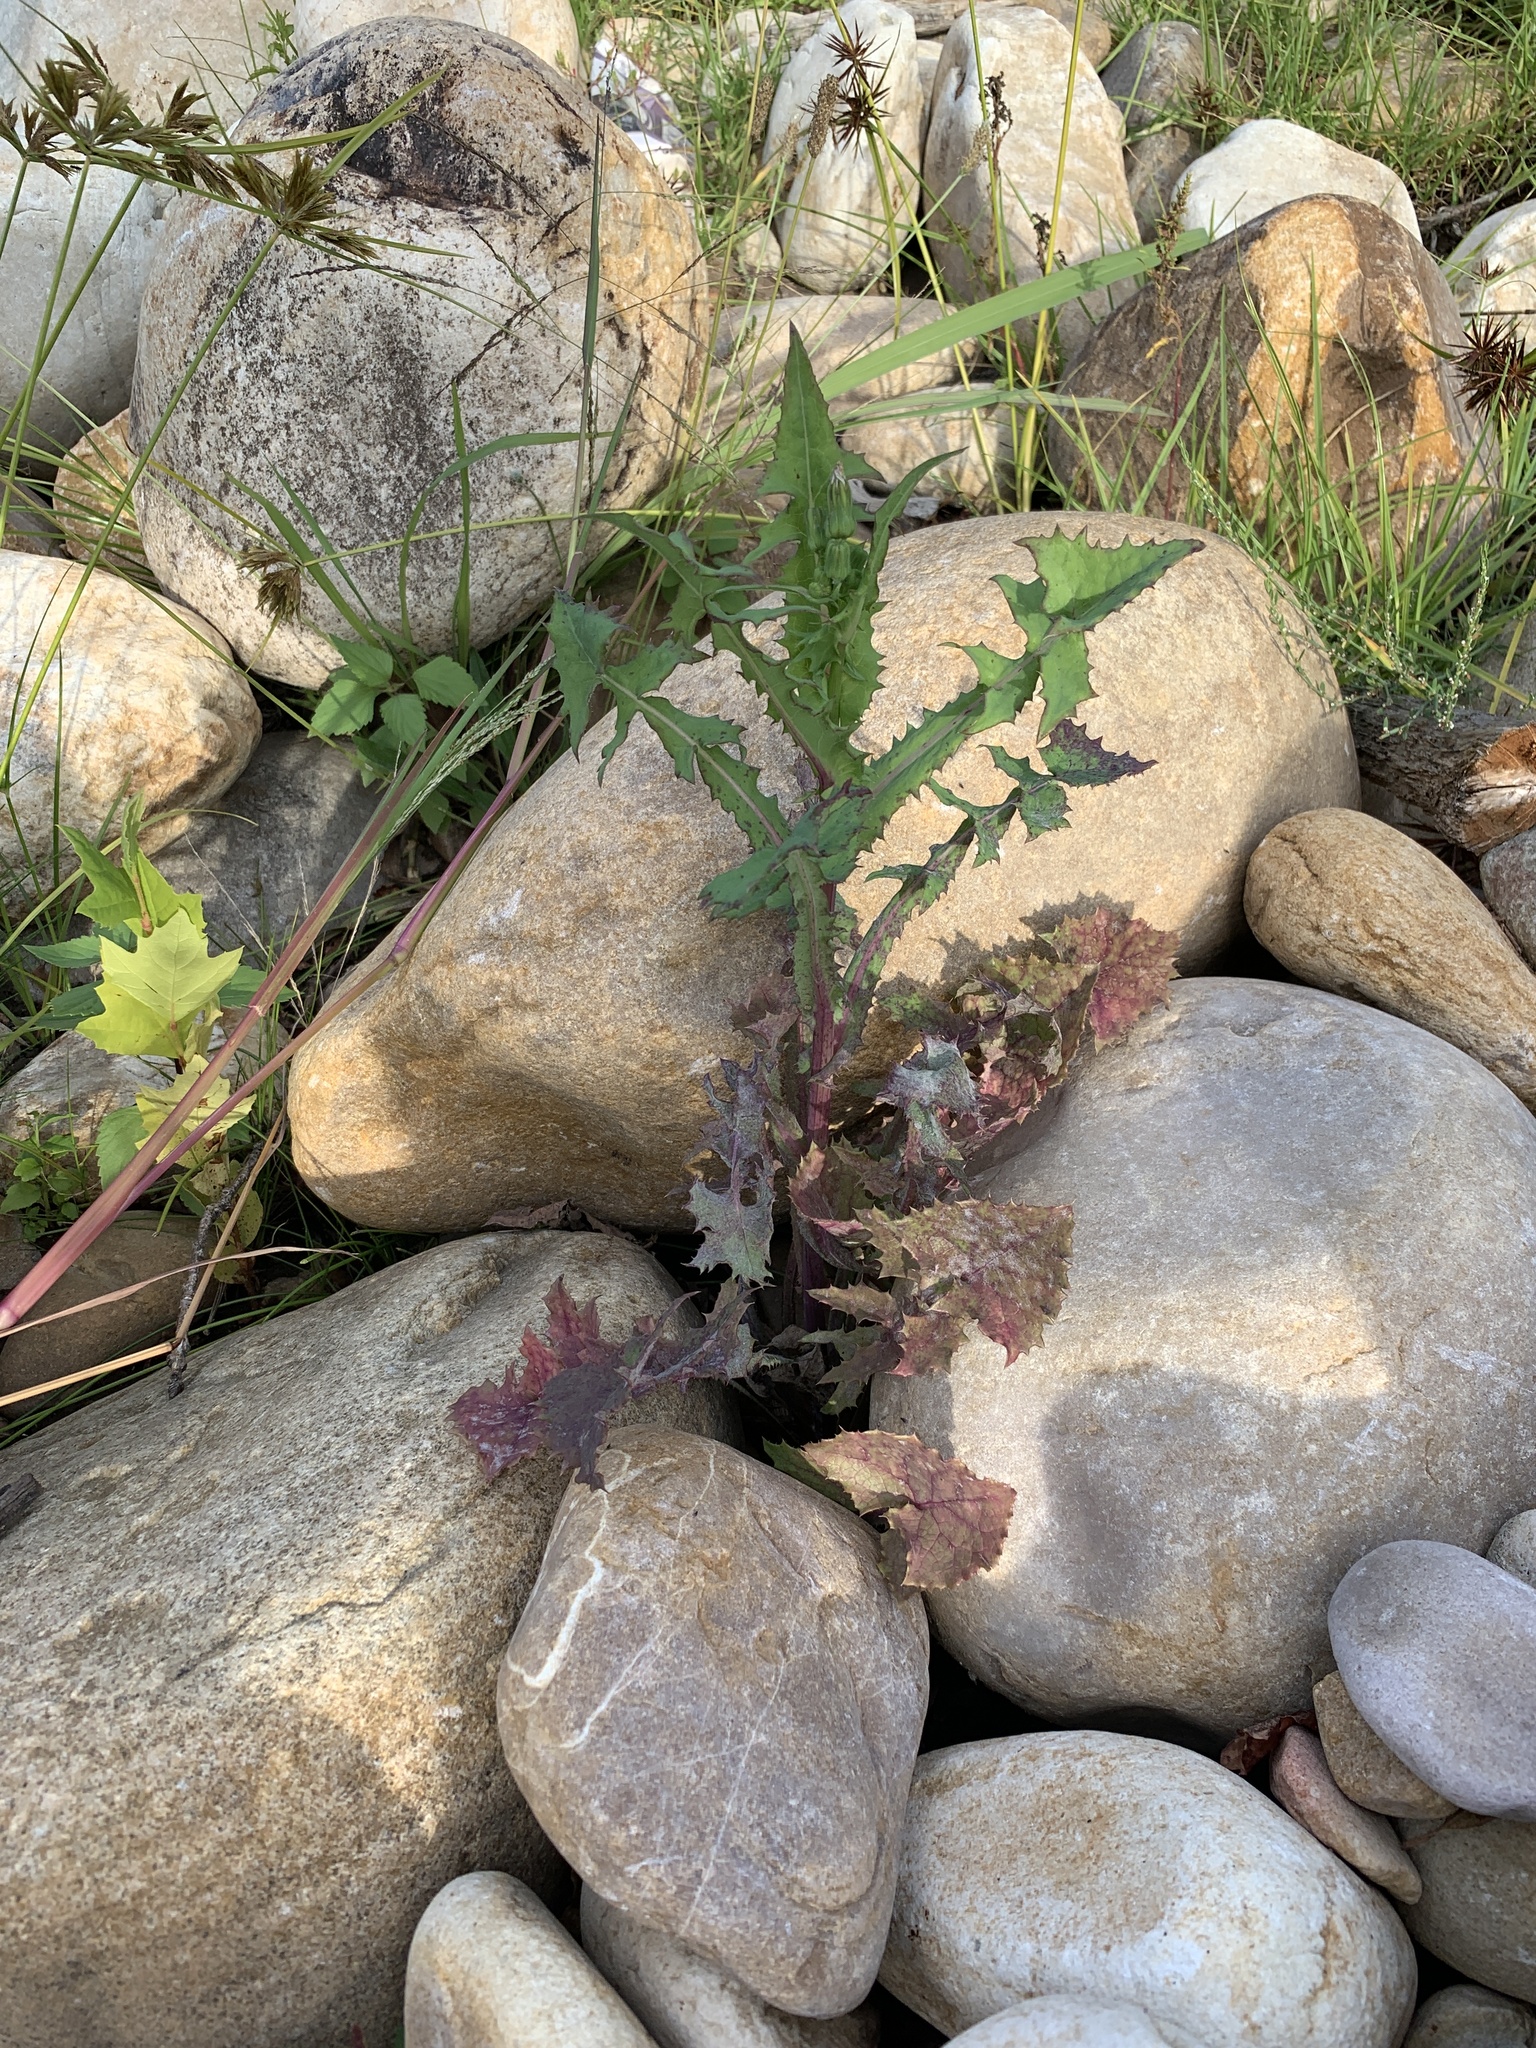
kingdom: Plantae
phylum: Tracheophyta
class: Magnoliopsida
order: Asterales
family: Asteraceae
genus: Sonchus
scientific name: Sonchus oleraceus
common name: Common sowthistle
